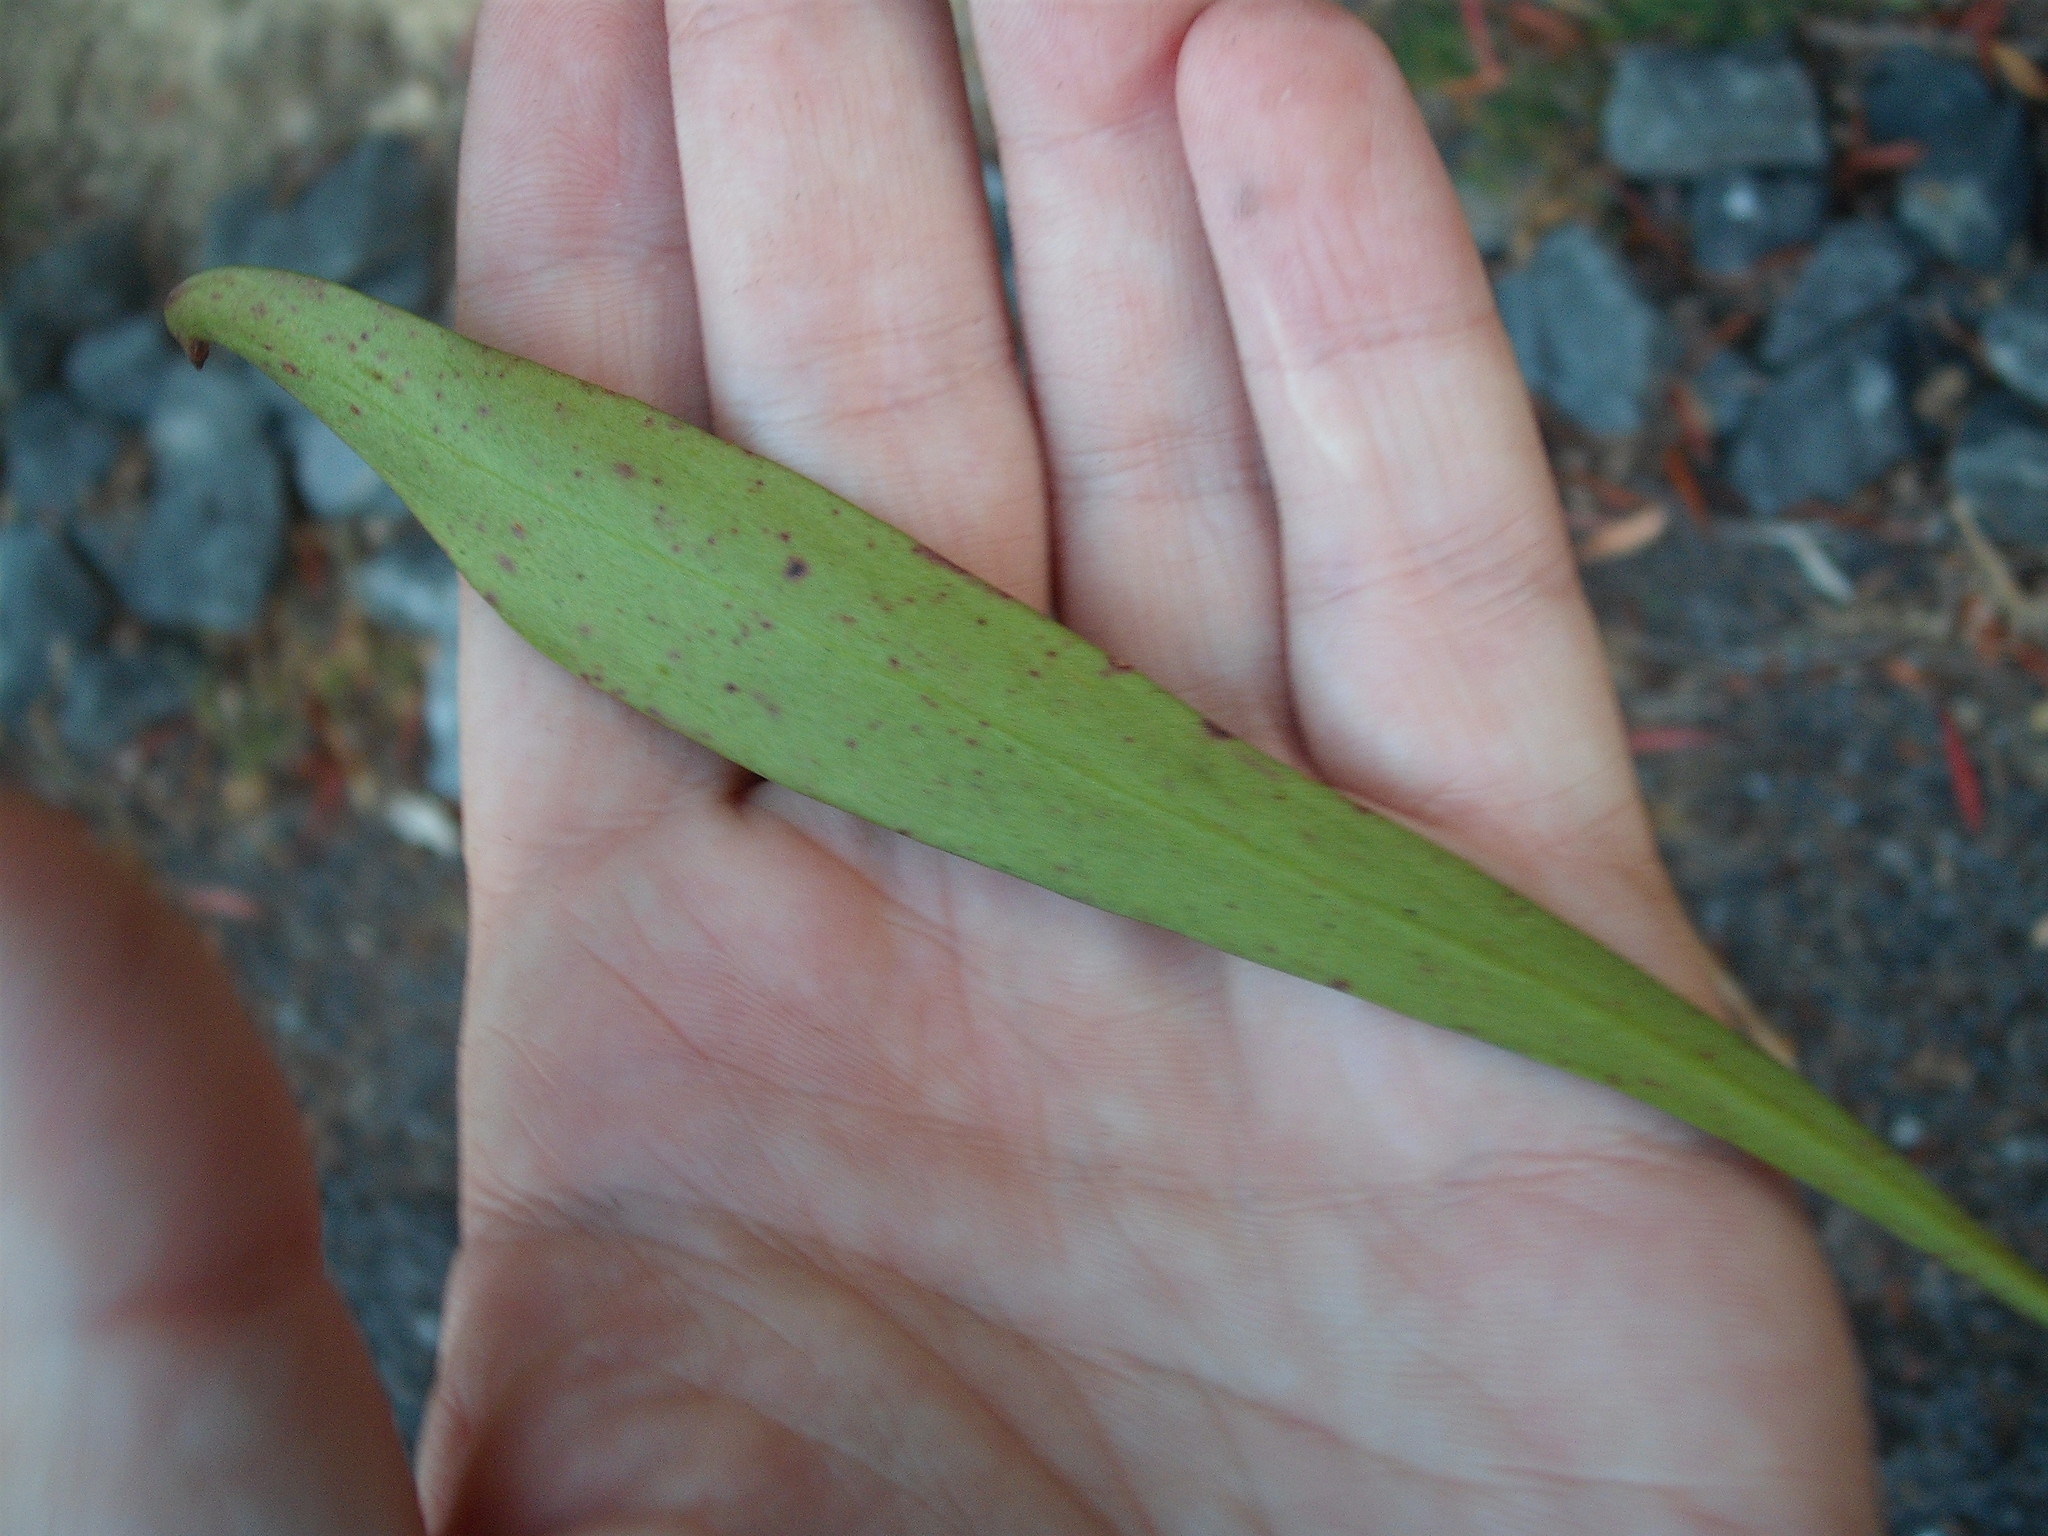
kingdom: Plantae
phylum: Tracheophyta
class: Magnoliopsida
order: Proteales
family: Proteaceae
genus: Toronia
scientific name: Toronia toru
